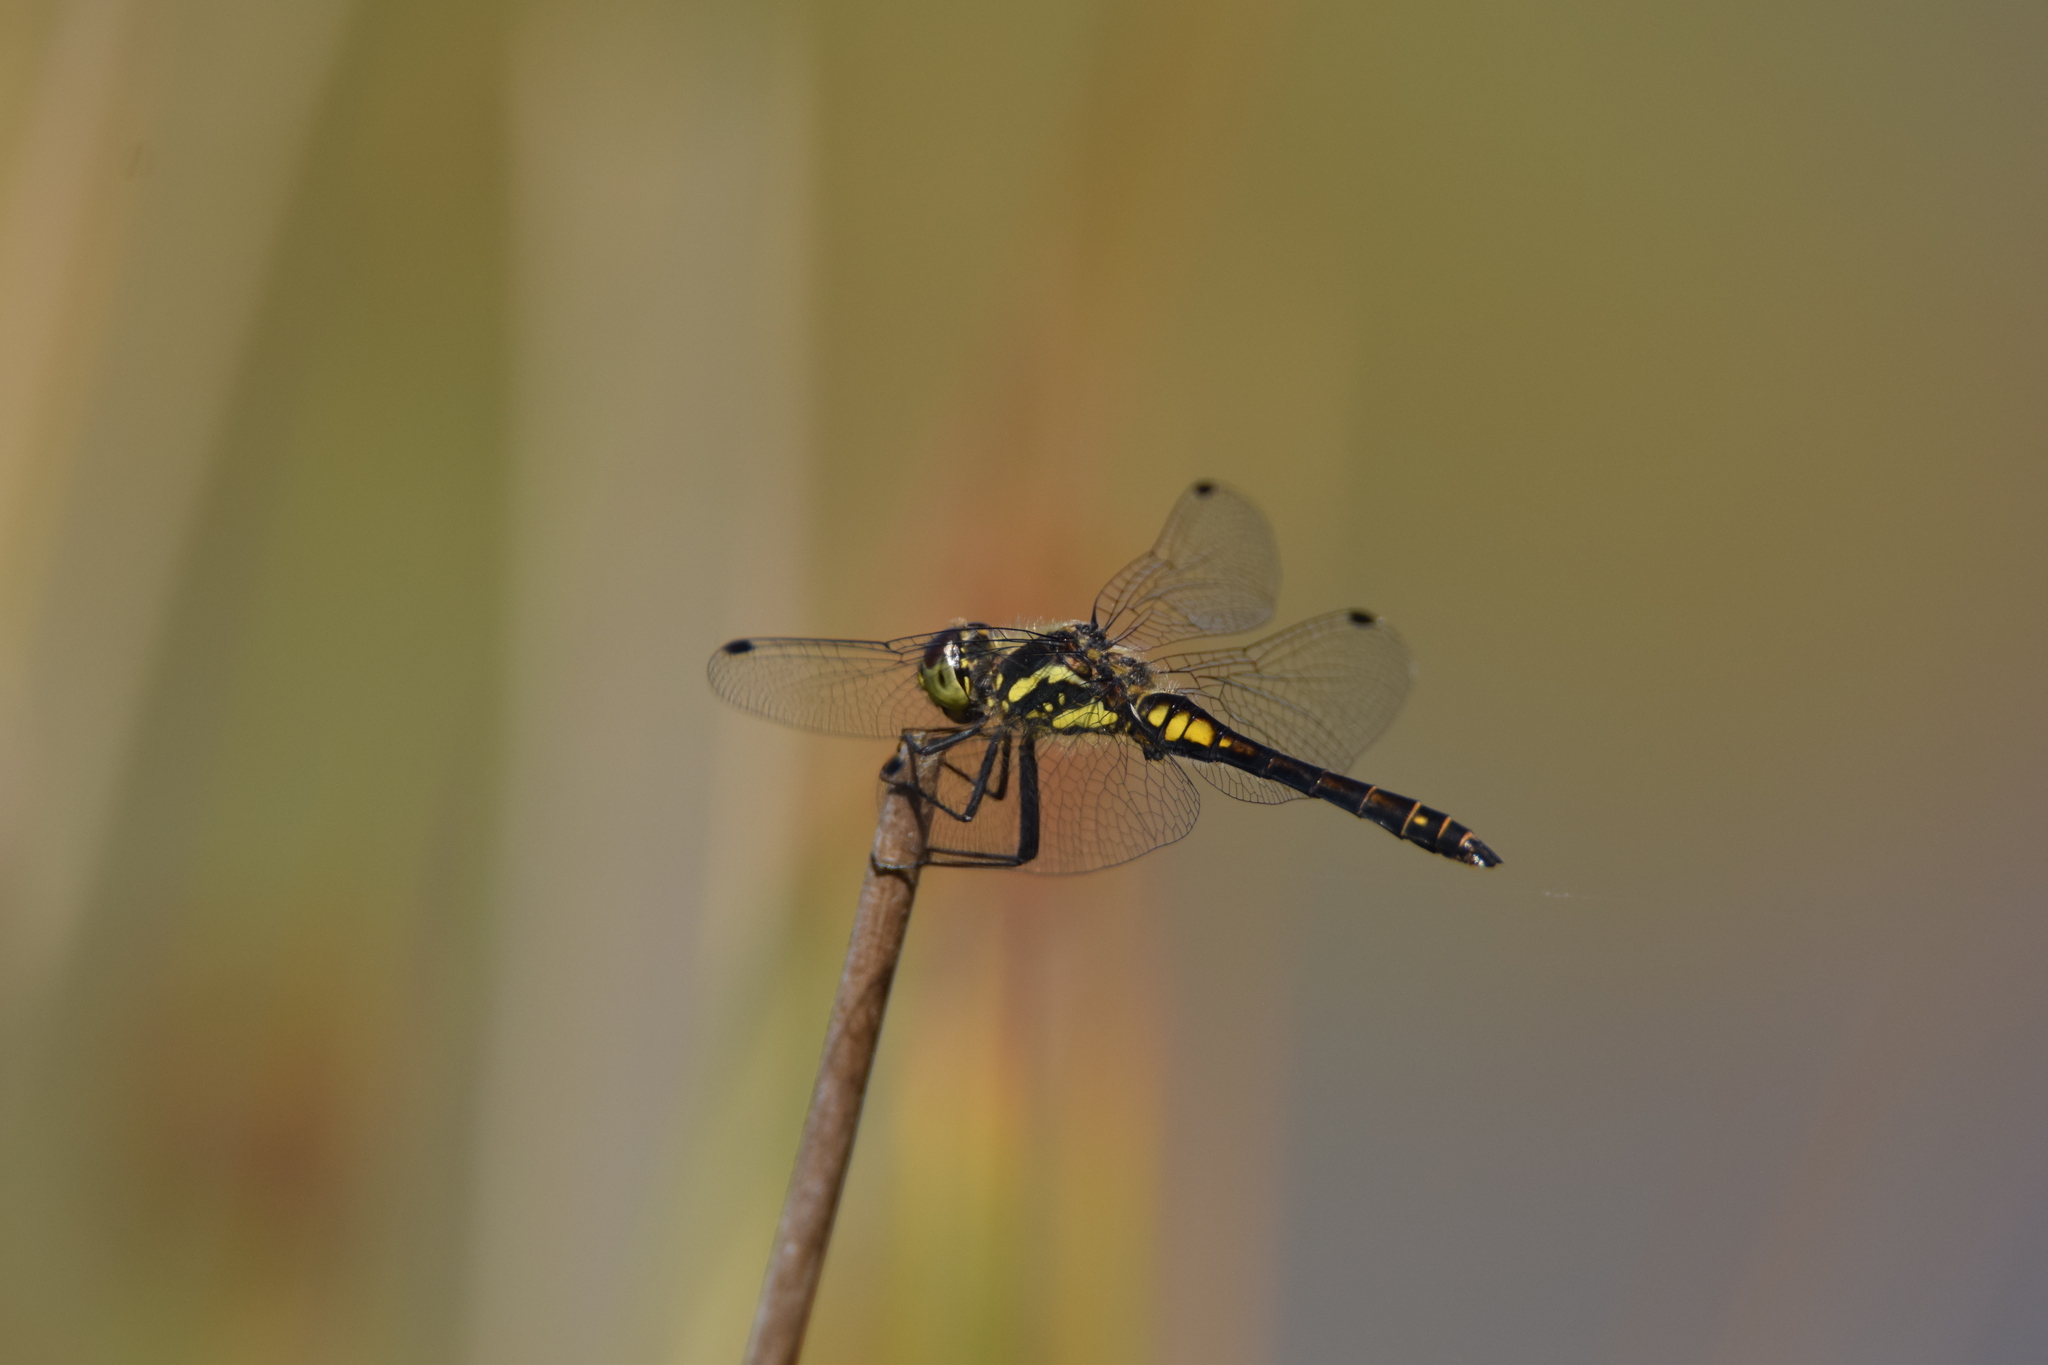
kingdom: Animalia
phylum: Arthropoda
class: Insecta
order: Odonata
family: Libellulidae
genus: Sympetrum
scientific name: Sympetrum danae
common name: Black darter
